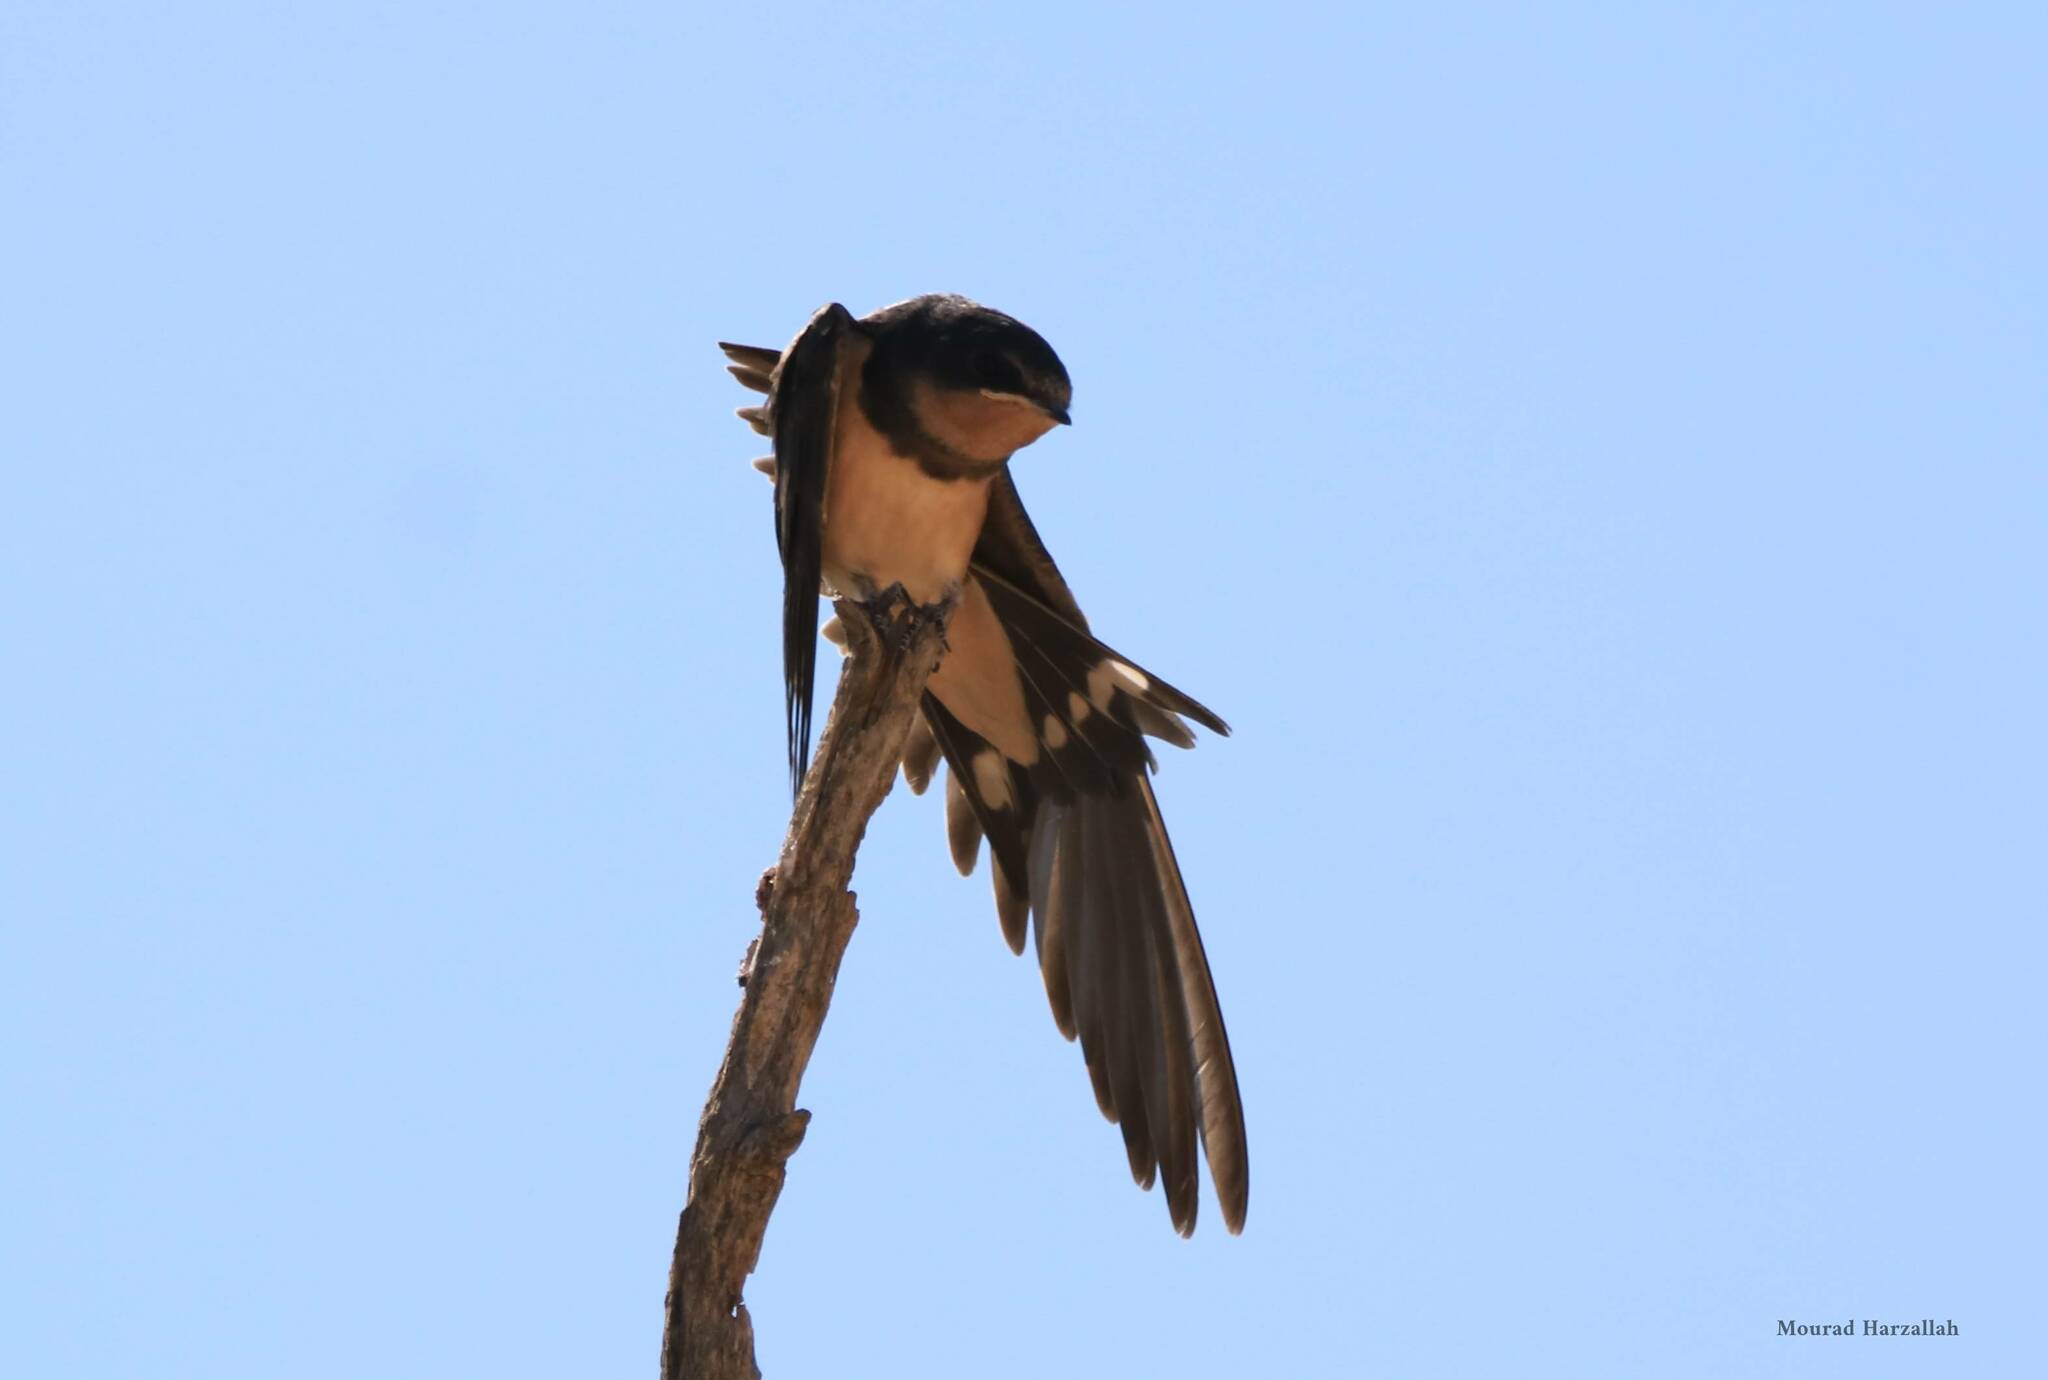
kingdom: Animalia
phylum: Chordata
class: Aves
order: Passeriformes
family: Hirundinidae
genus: Hirundo
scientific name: Hirundo rustica
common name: Barn swallow
